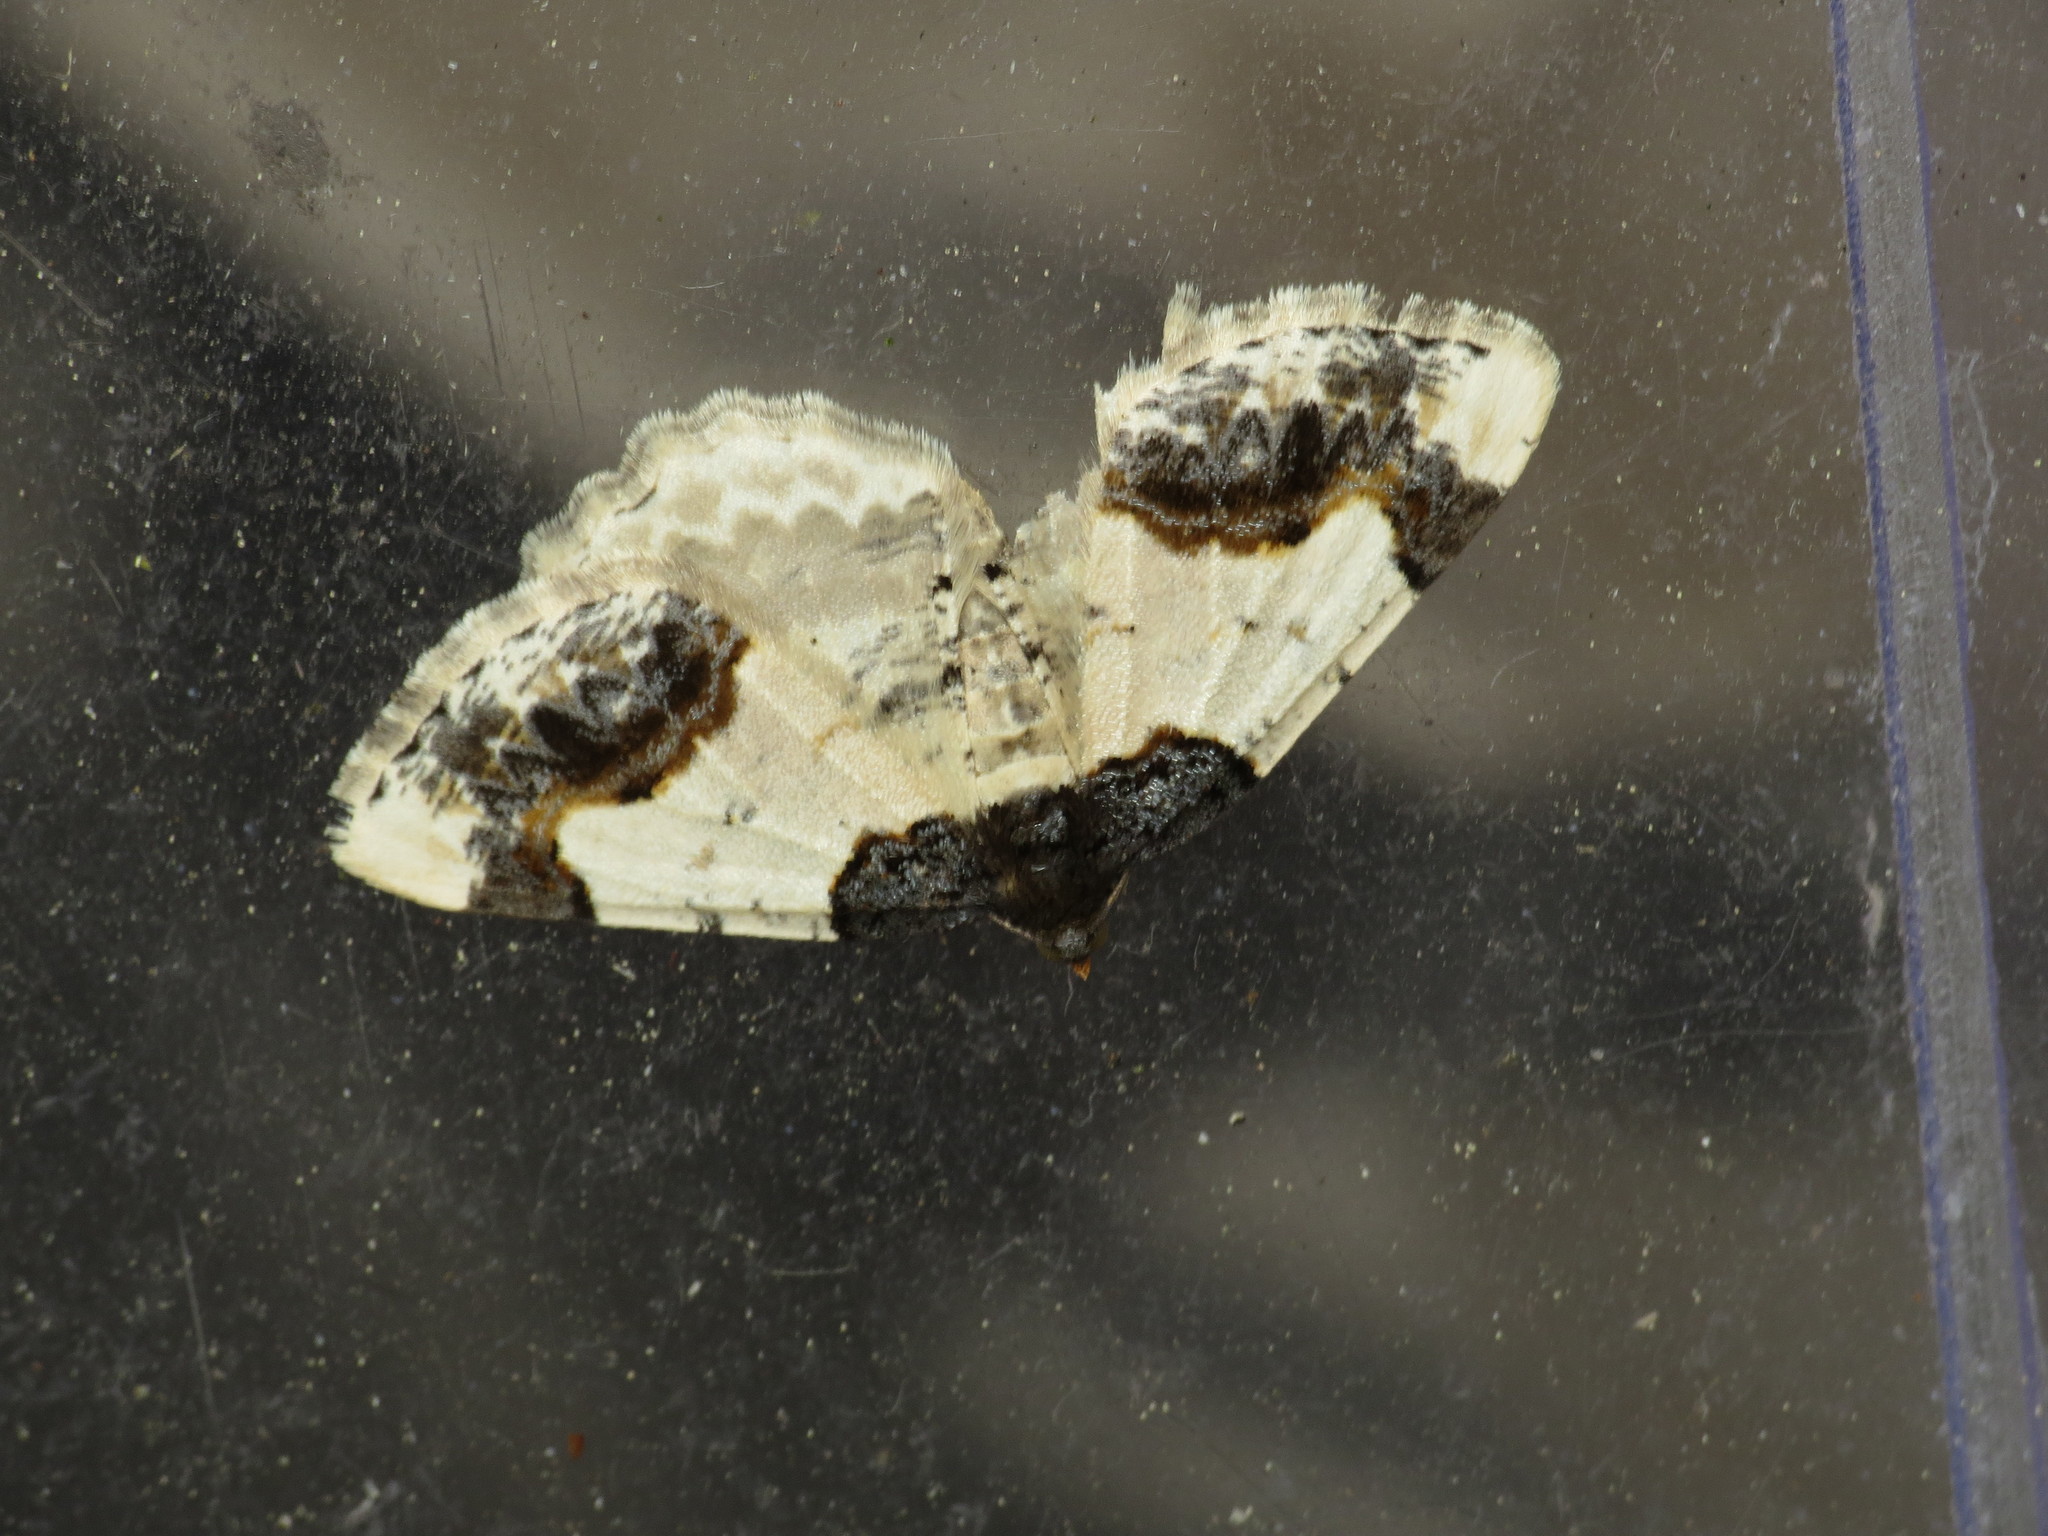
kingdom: Animalia
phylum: Arthropoda
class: Insecta
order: Lepidoptera
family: Geometridae
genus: Ligdia
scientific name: Ligdia adustata
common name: Scorched carpet
